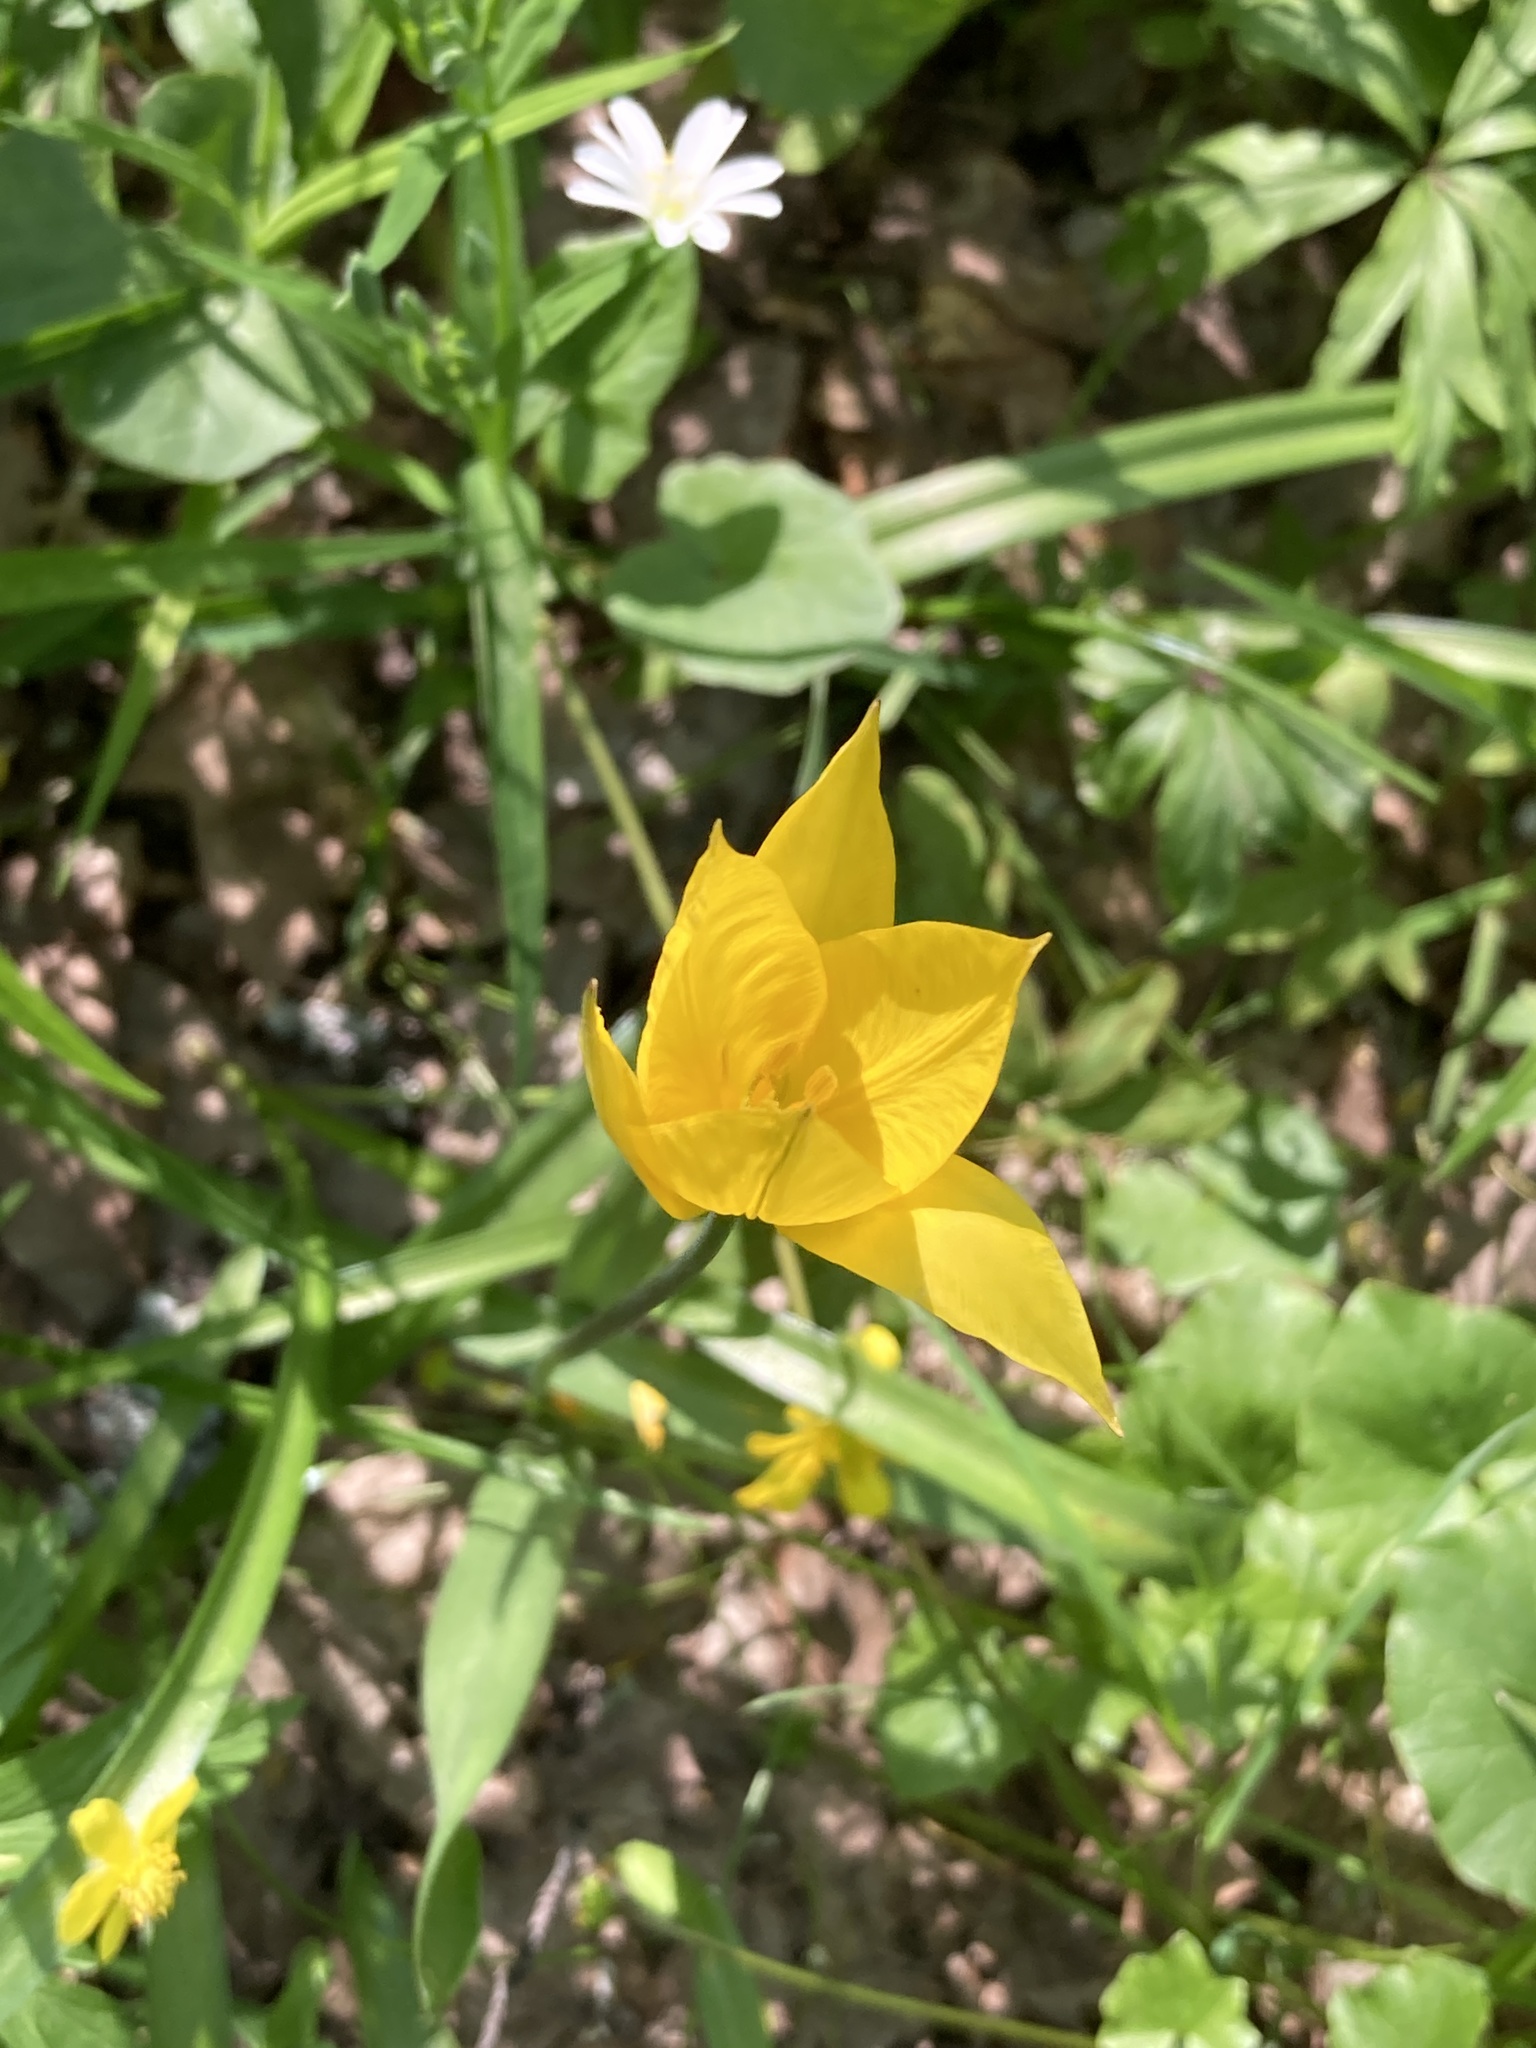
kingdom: Plantae
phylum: Tracheophyta
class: Liliopsida
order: Liliales
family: Liliaceae
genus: Tulipa
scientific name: Tulipa sylvestris
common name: Wild tulip
